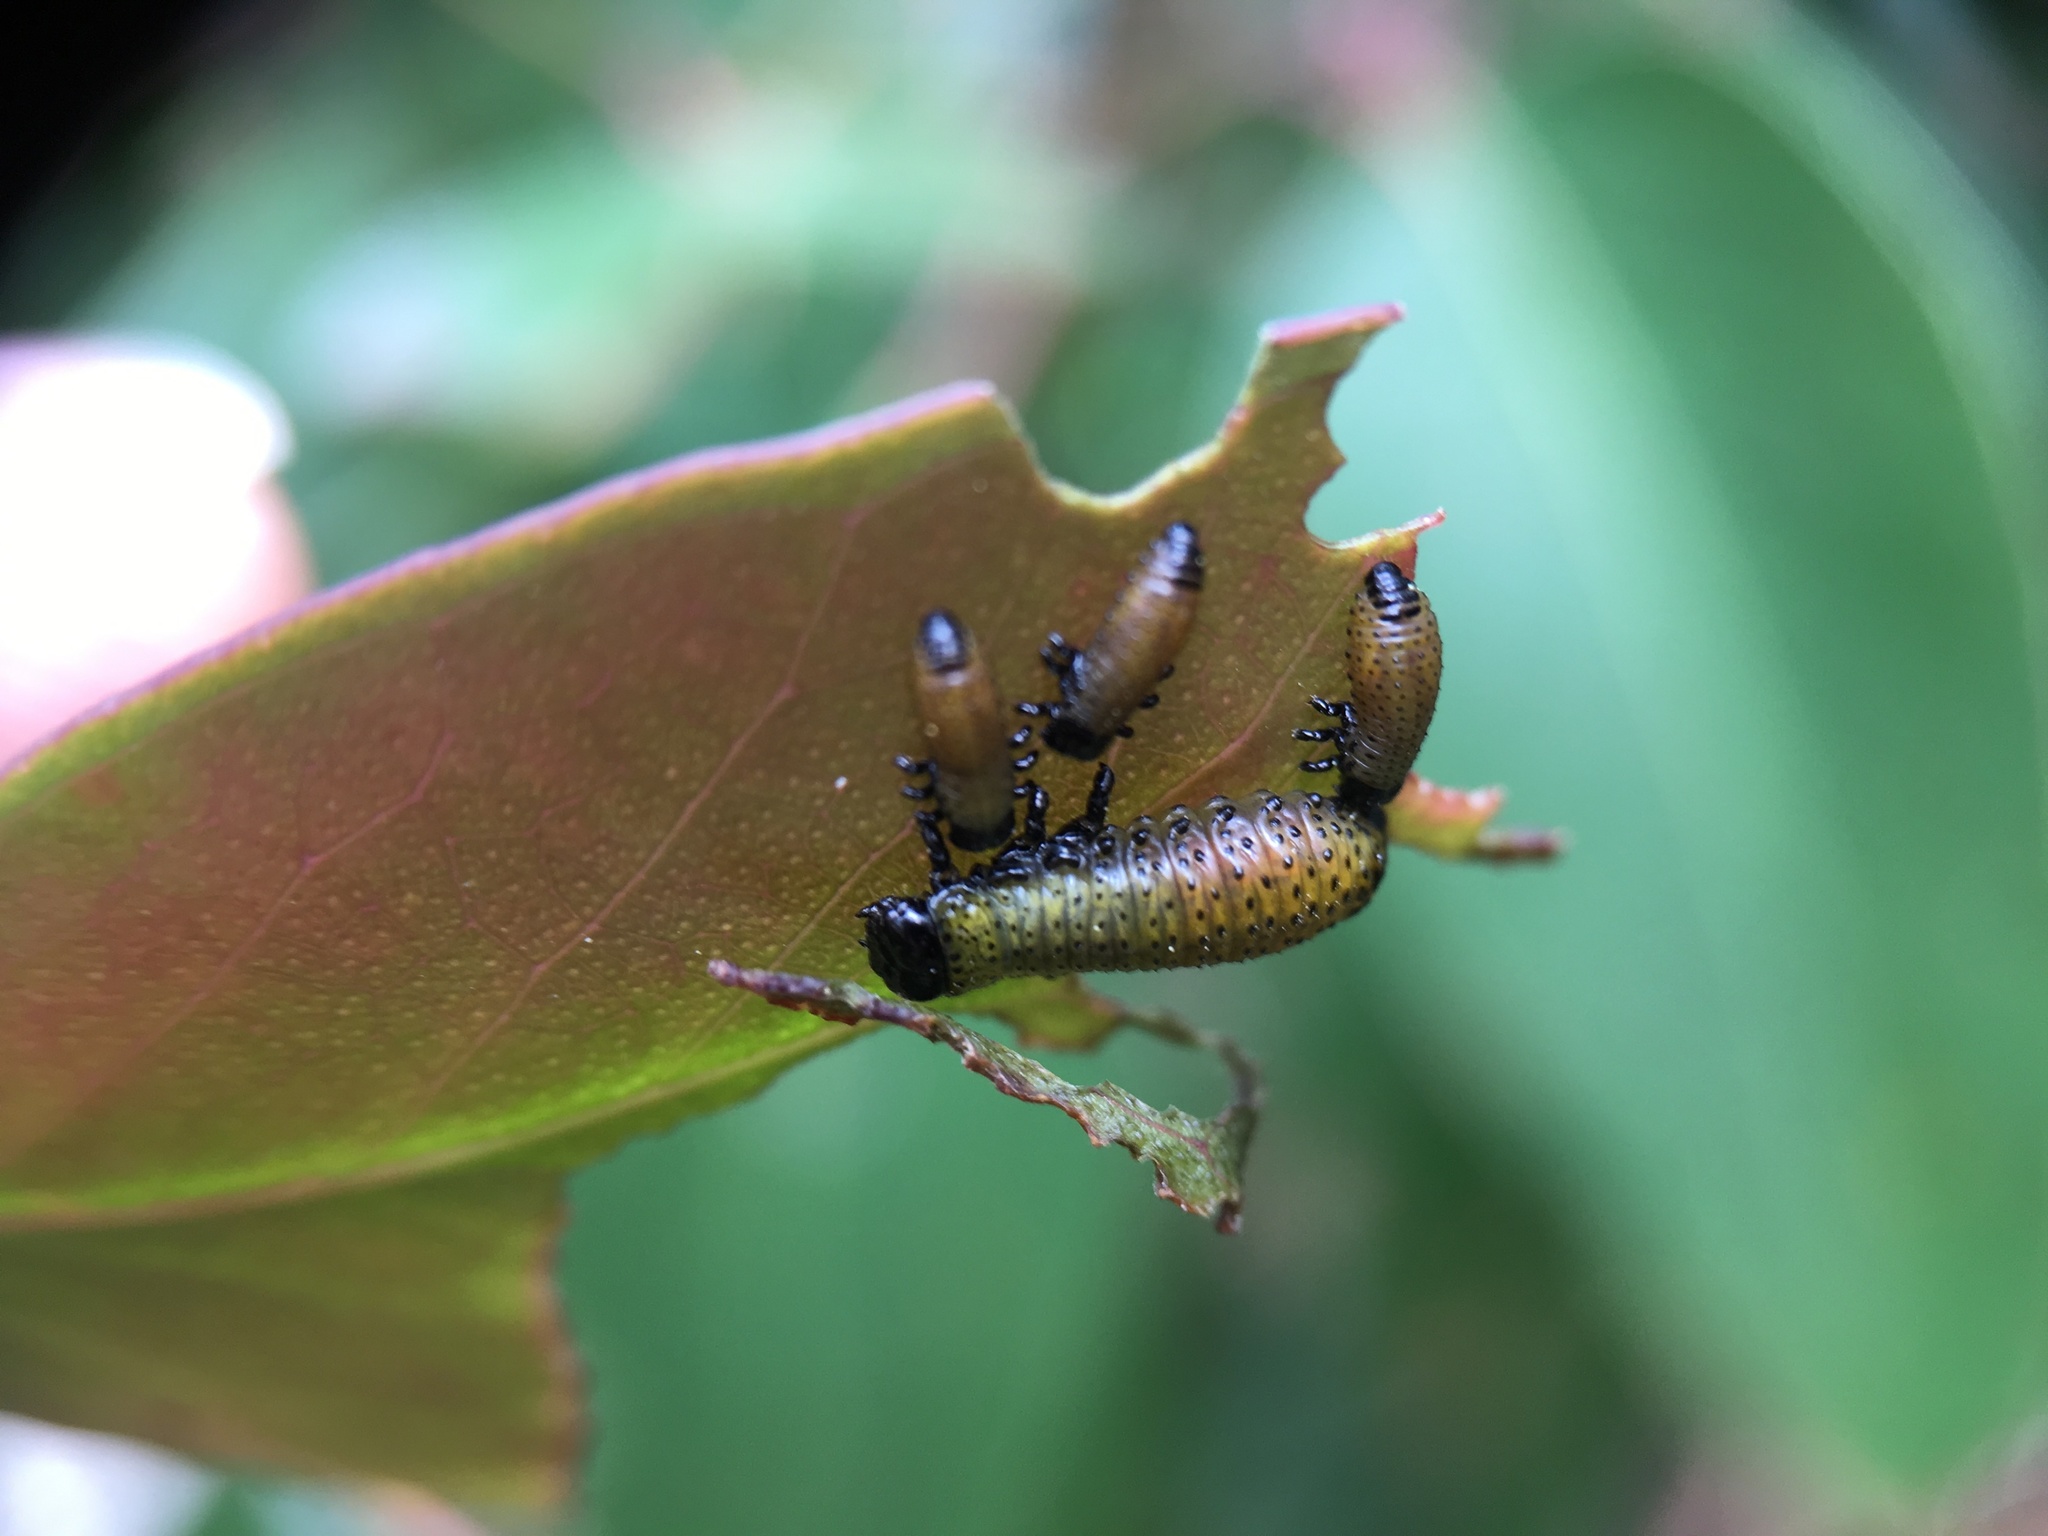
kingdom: Animalia
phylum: Arthropoda
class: Insecta
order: Coleoptera
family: Chrysomelidae
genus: Paropsis
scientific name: Paropsis charybdis
